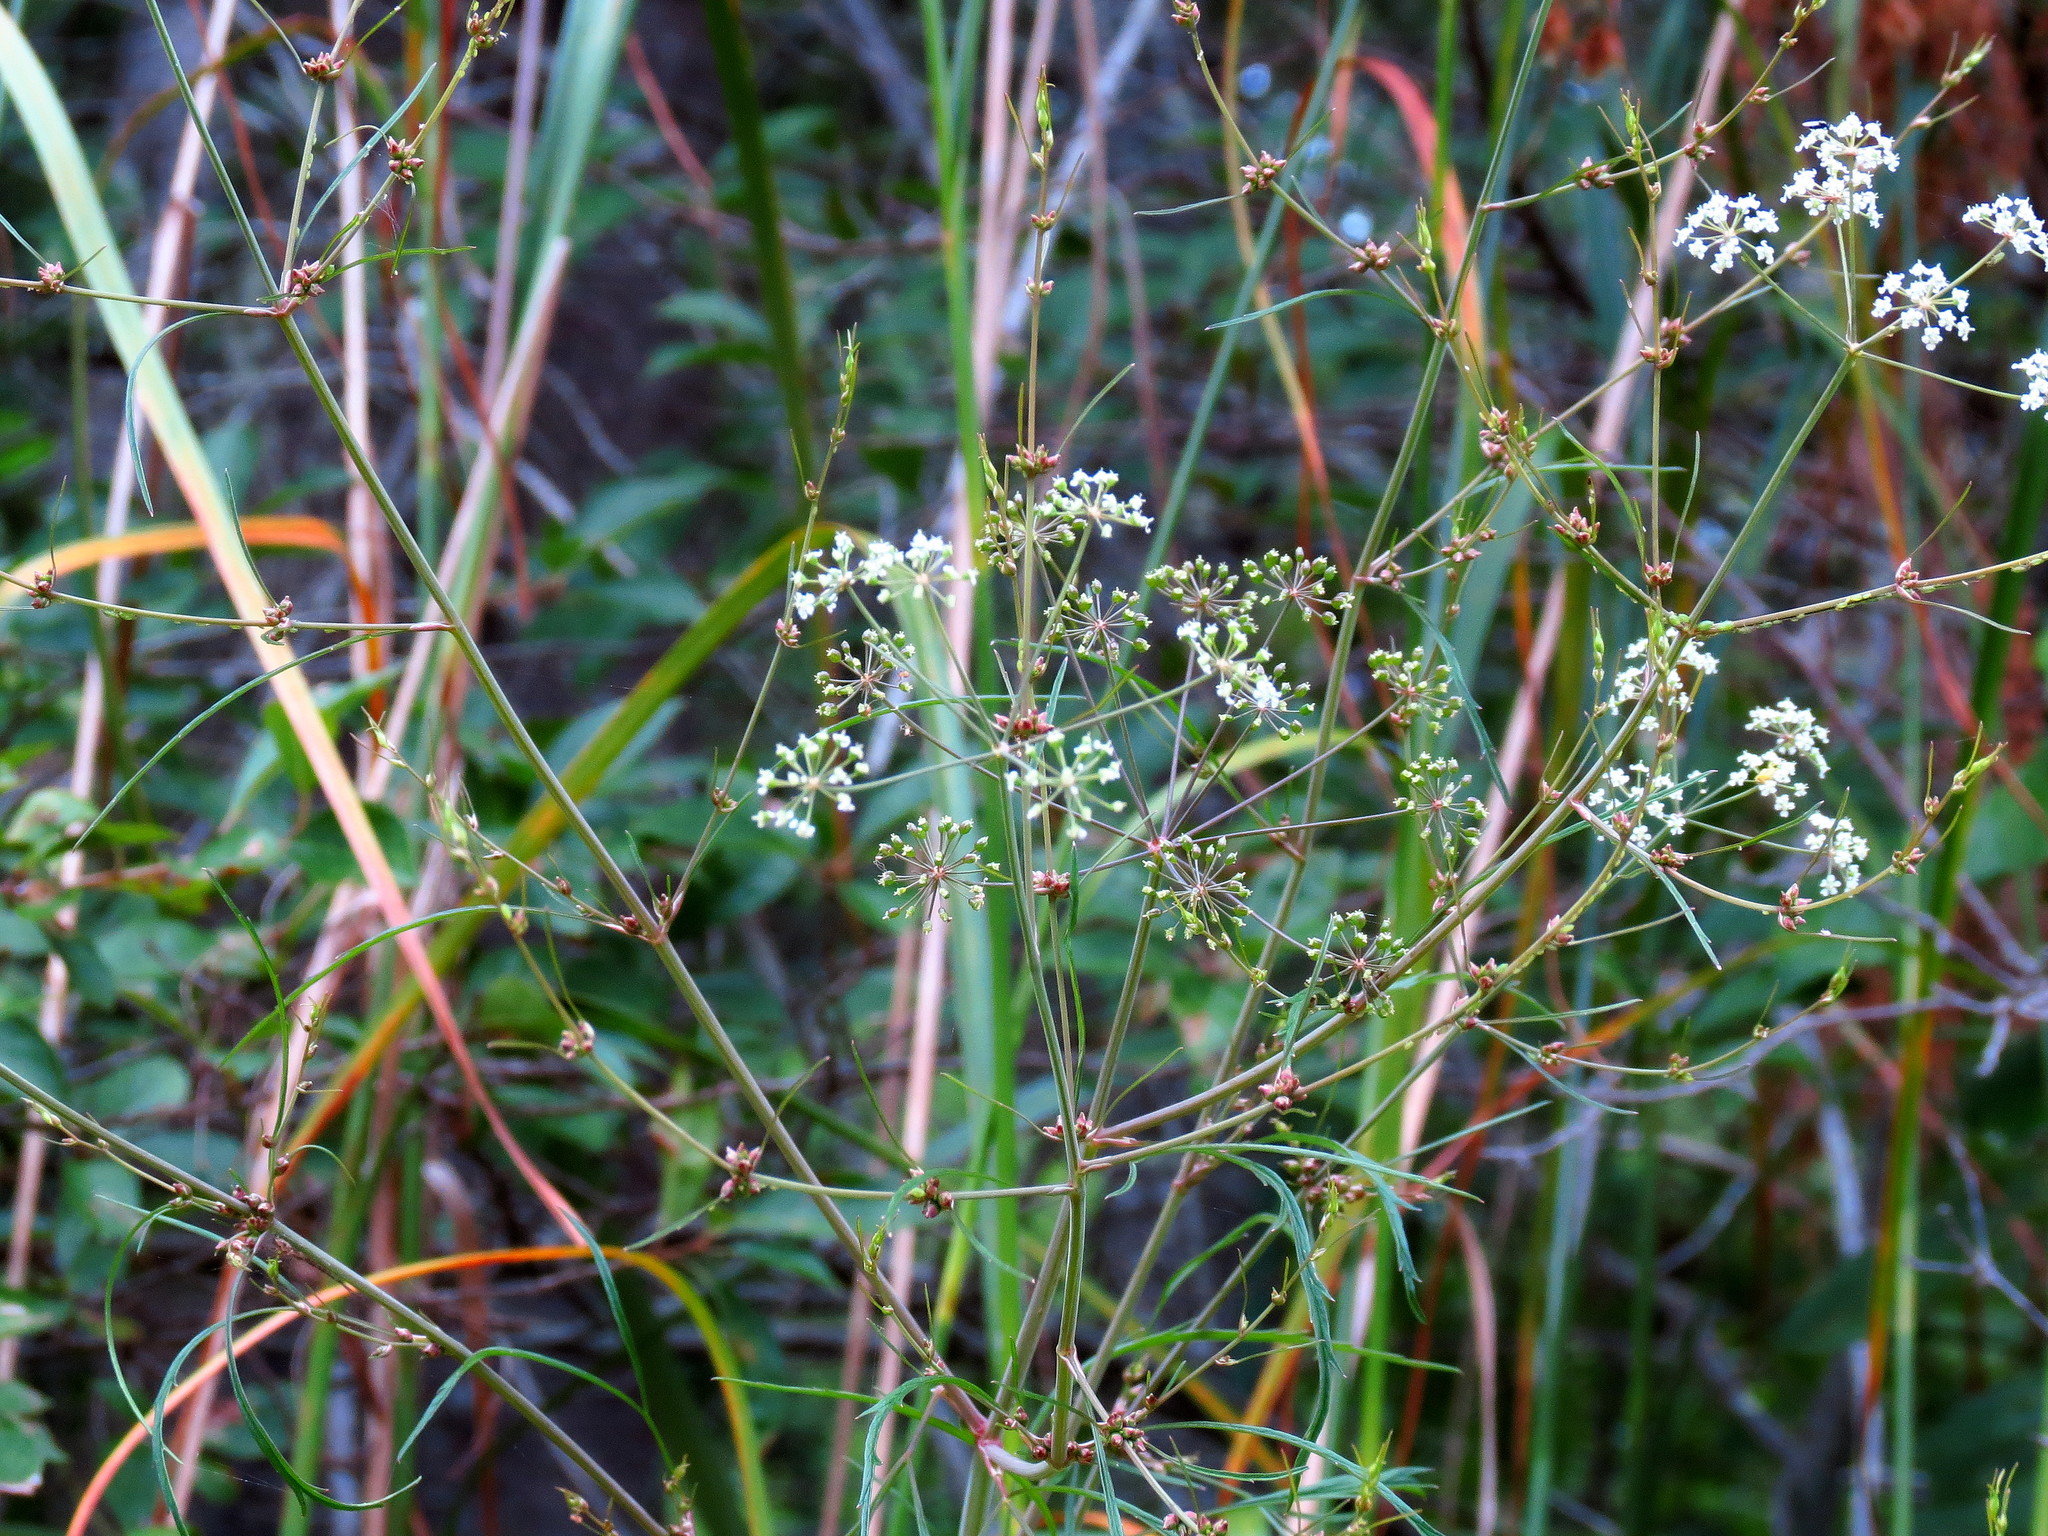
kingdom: Plantae
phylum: Tracheophyta
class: Magnoliopsida
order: Apiales
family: Apiaceae
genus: Cicuta
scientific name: Cicuta bulbifera
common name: Bulb-bearing water-hemlock
